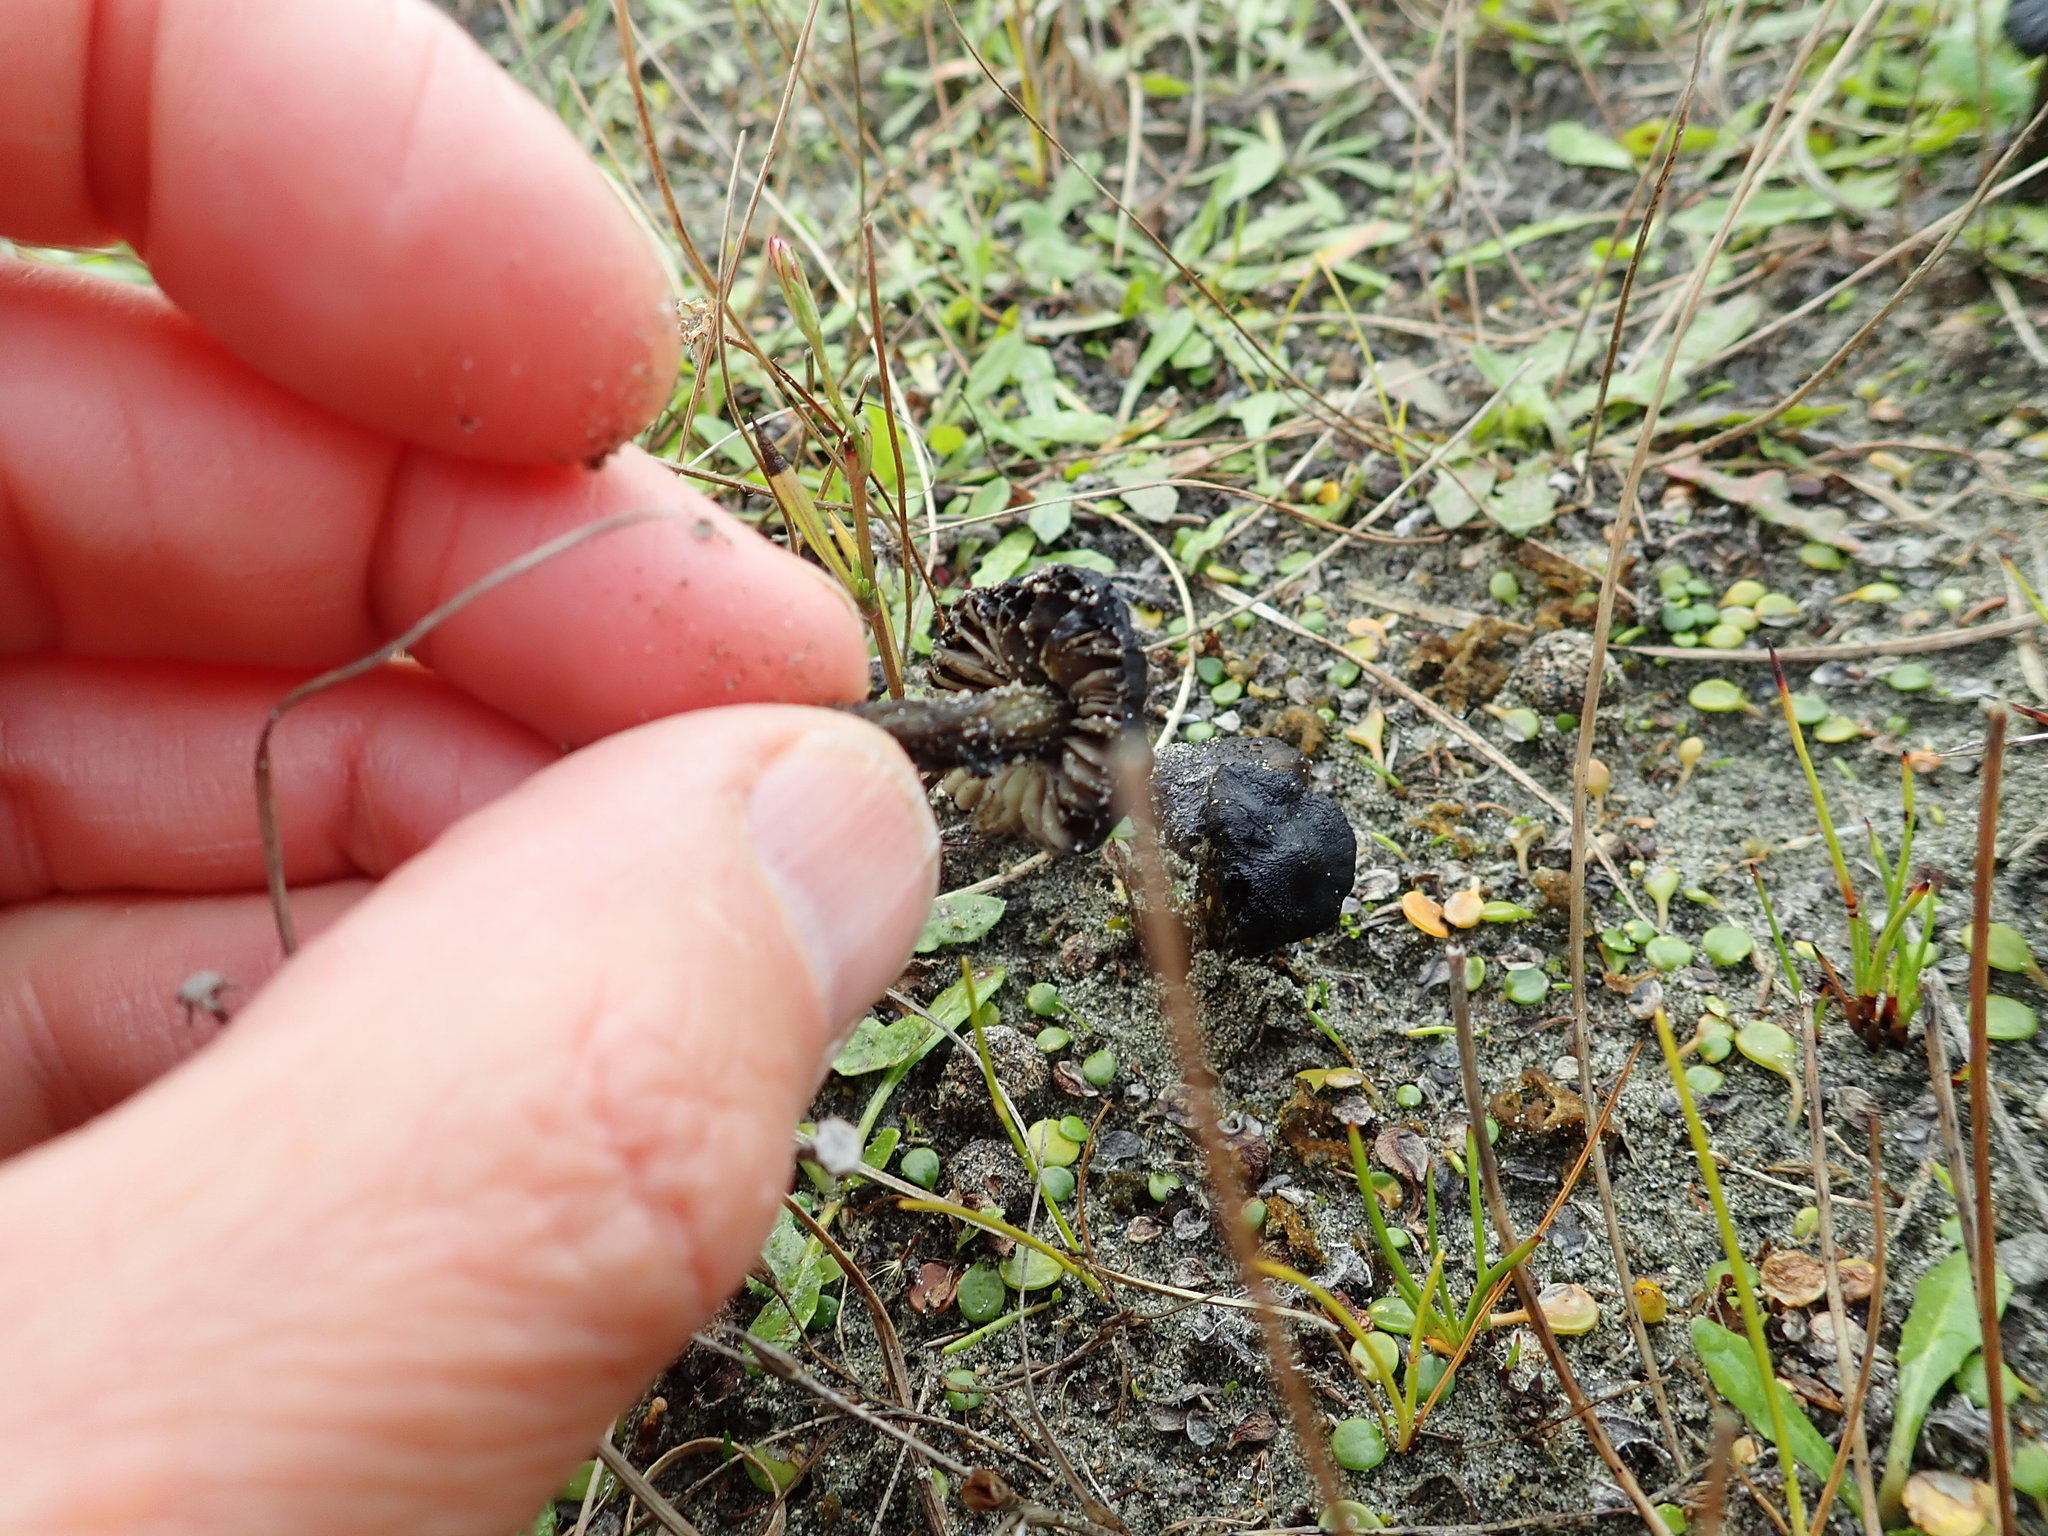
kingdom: Fungi
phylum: Basidiomycota
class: Agaricomycetes
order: Agaricales
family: Hygrophoraceae
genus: Hygrocybe
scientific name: Hygrocybe conica
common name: Blackening wax-cap
